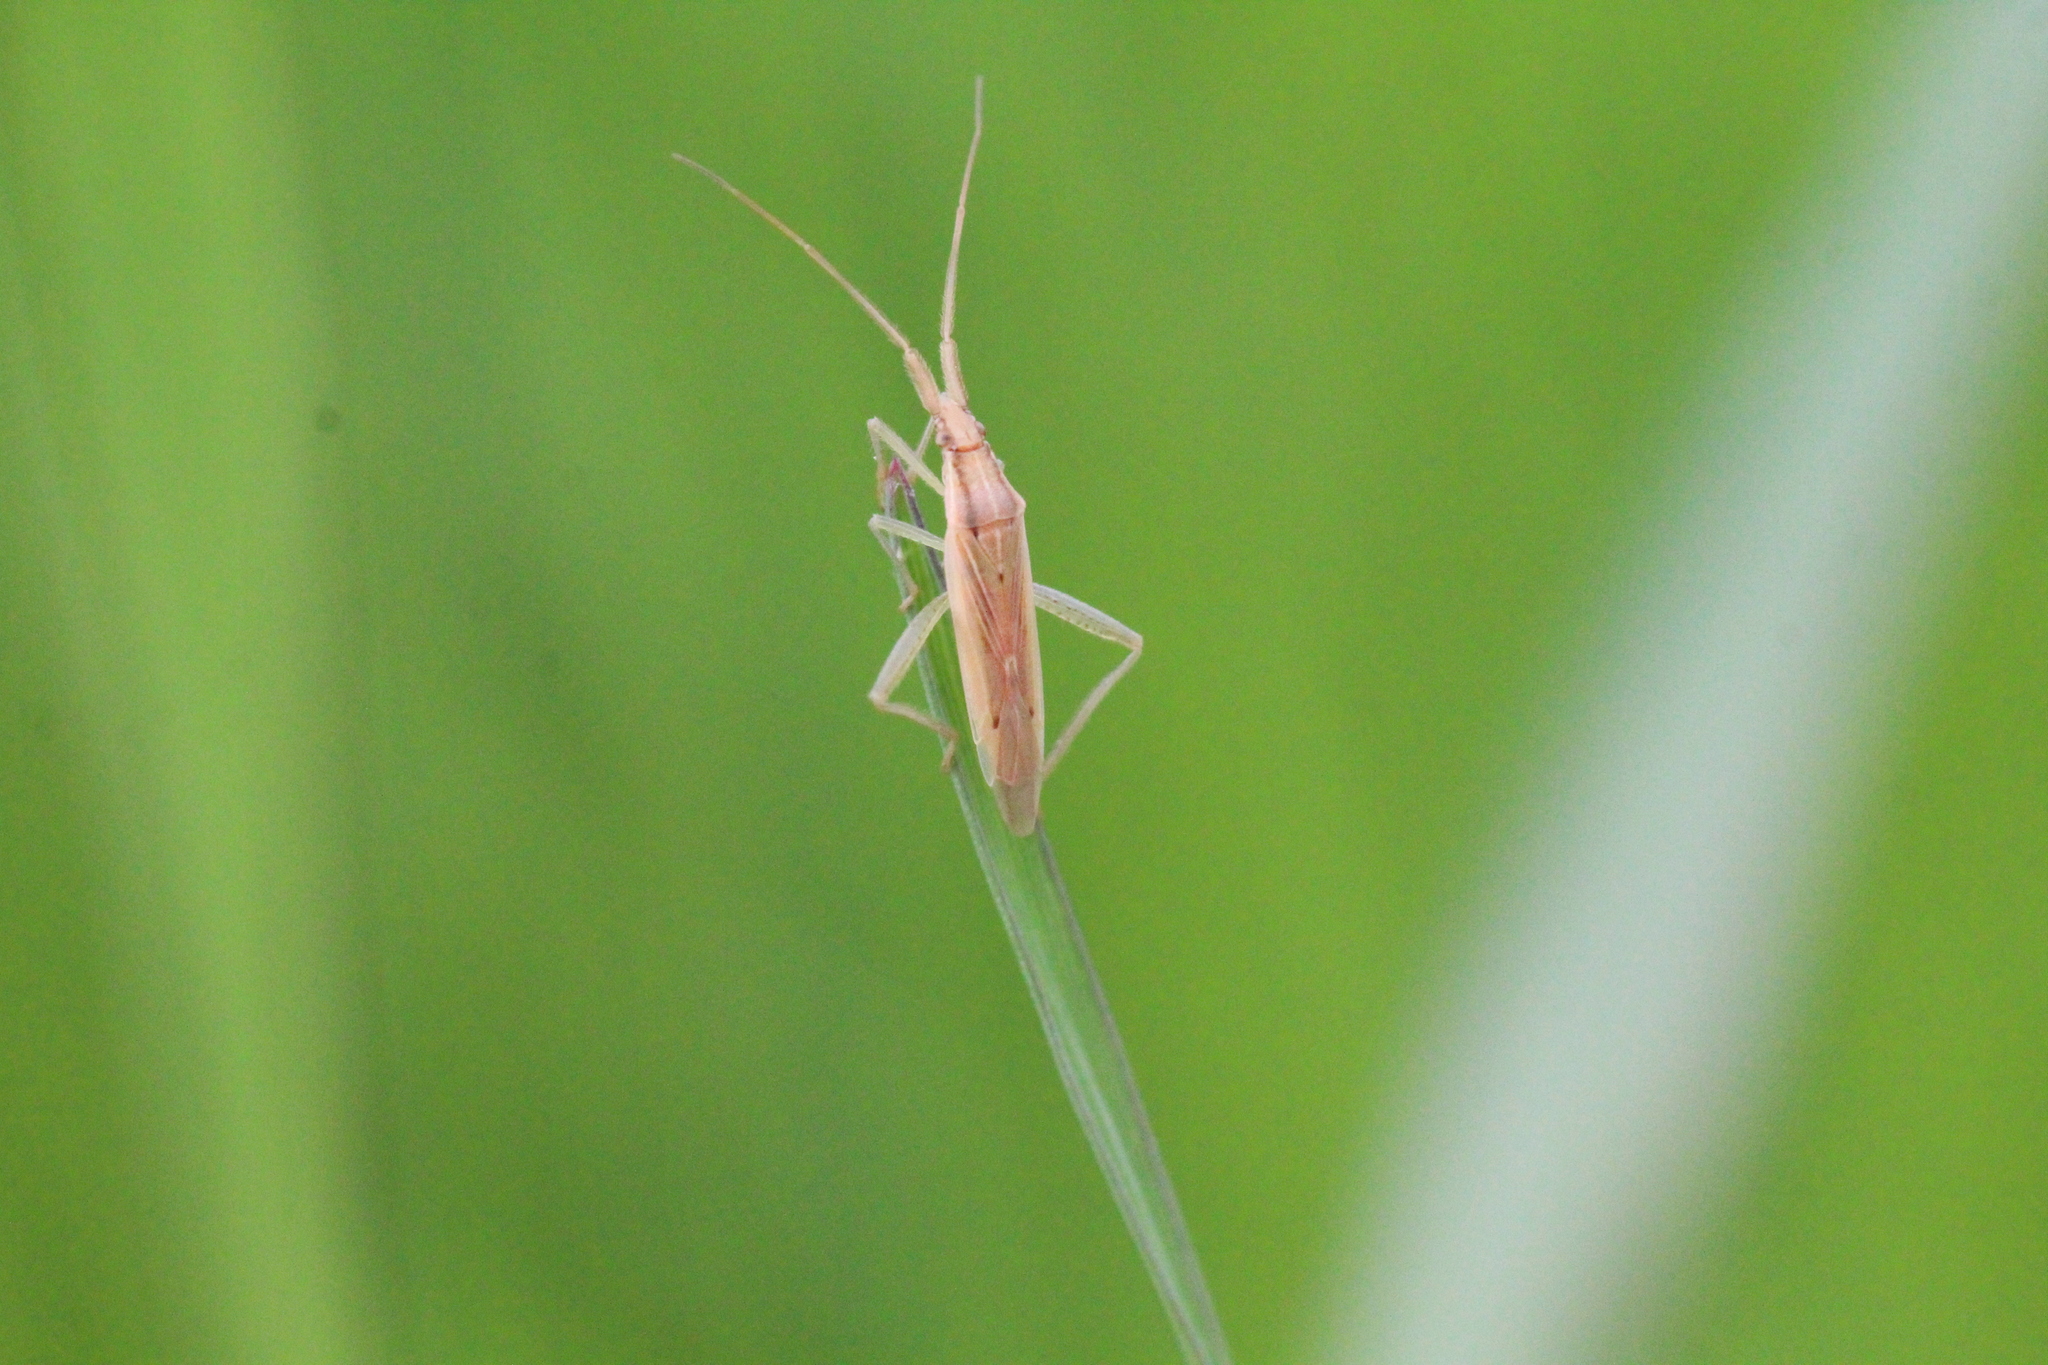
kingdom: Animalia
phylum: Arthropoda
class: Insecta
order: Hemiptera
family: Miridae
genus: Stenodema
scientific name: Stenodema laevigata
